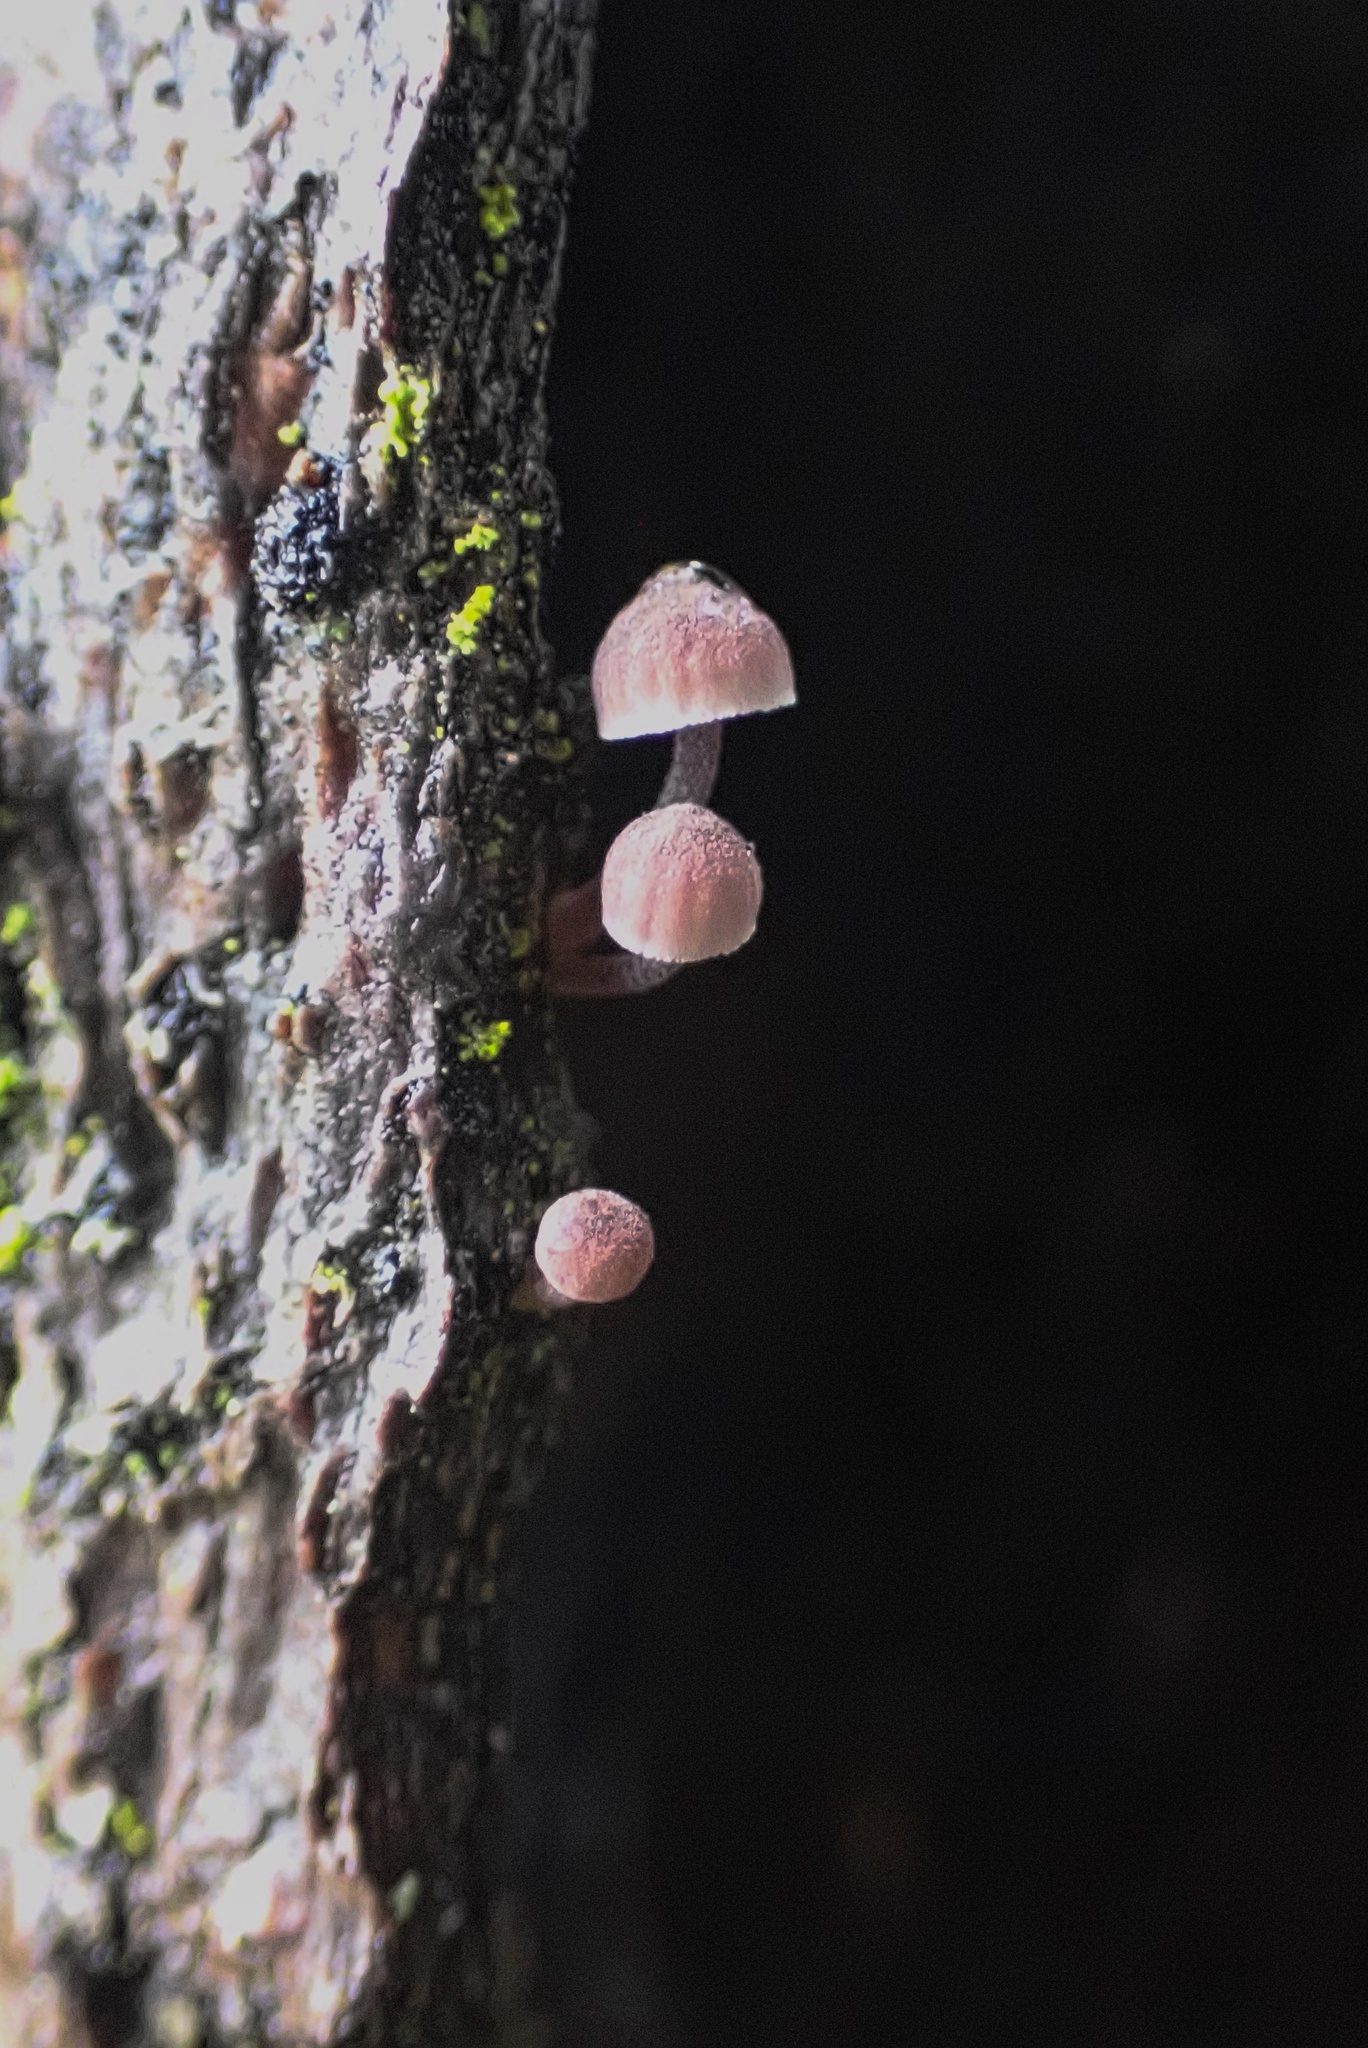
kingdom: Fungi
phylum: Basidiomycota
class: Agaricomycetes
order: Agaricales
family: Mycenaceae
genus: Mycena
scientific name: Mycena meliigena
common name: Mauve bonnet
